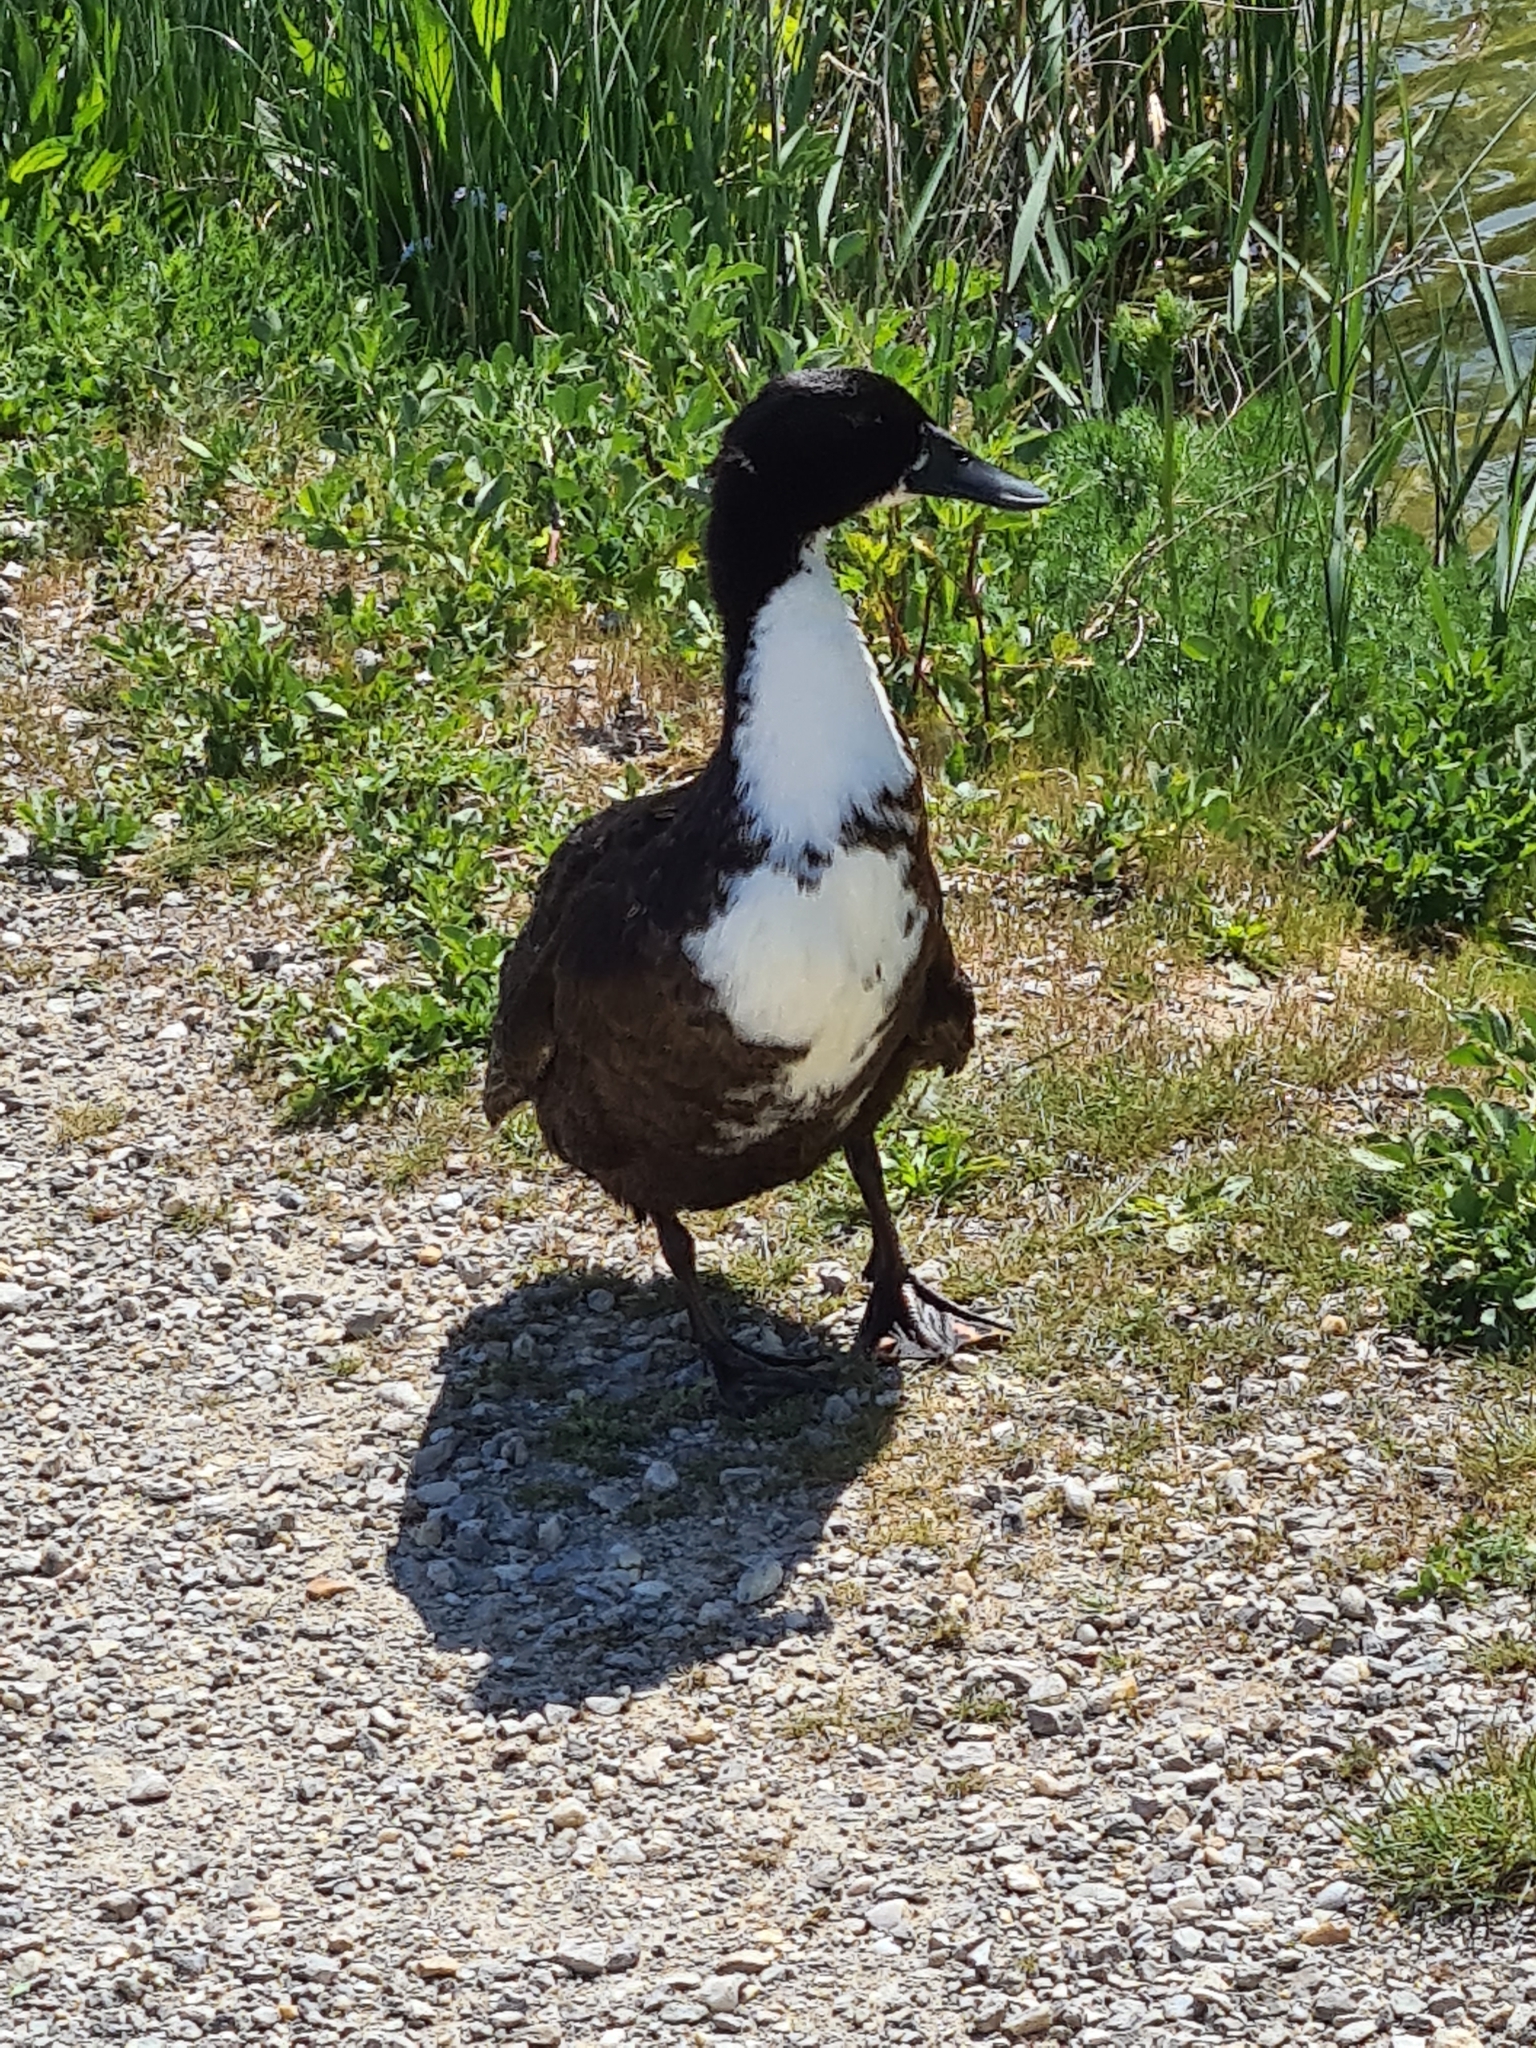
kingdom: Animalia
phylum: Chordata
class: Aves
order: Anseriformes
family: Anatidae
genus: Anas
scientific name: Anas platyrhynchos
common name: Mallard
